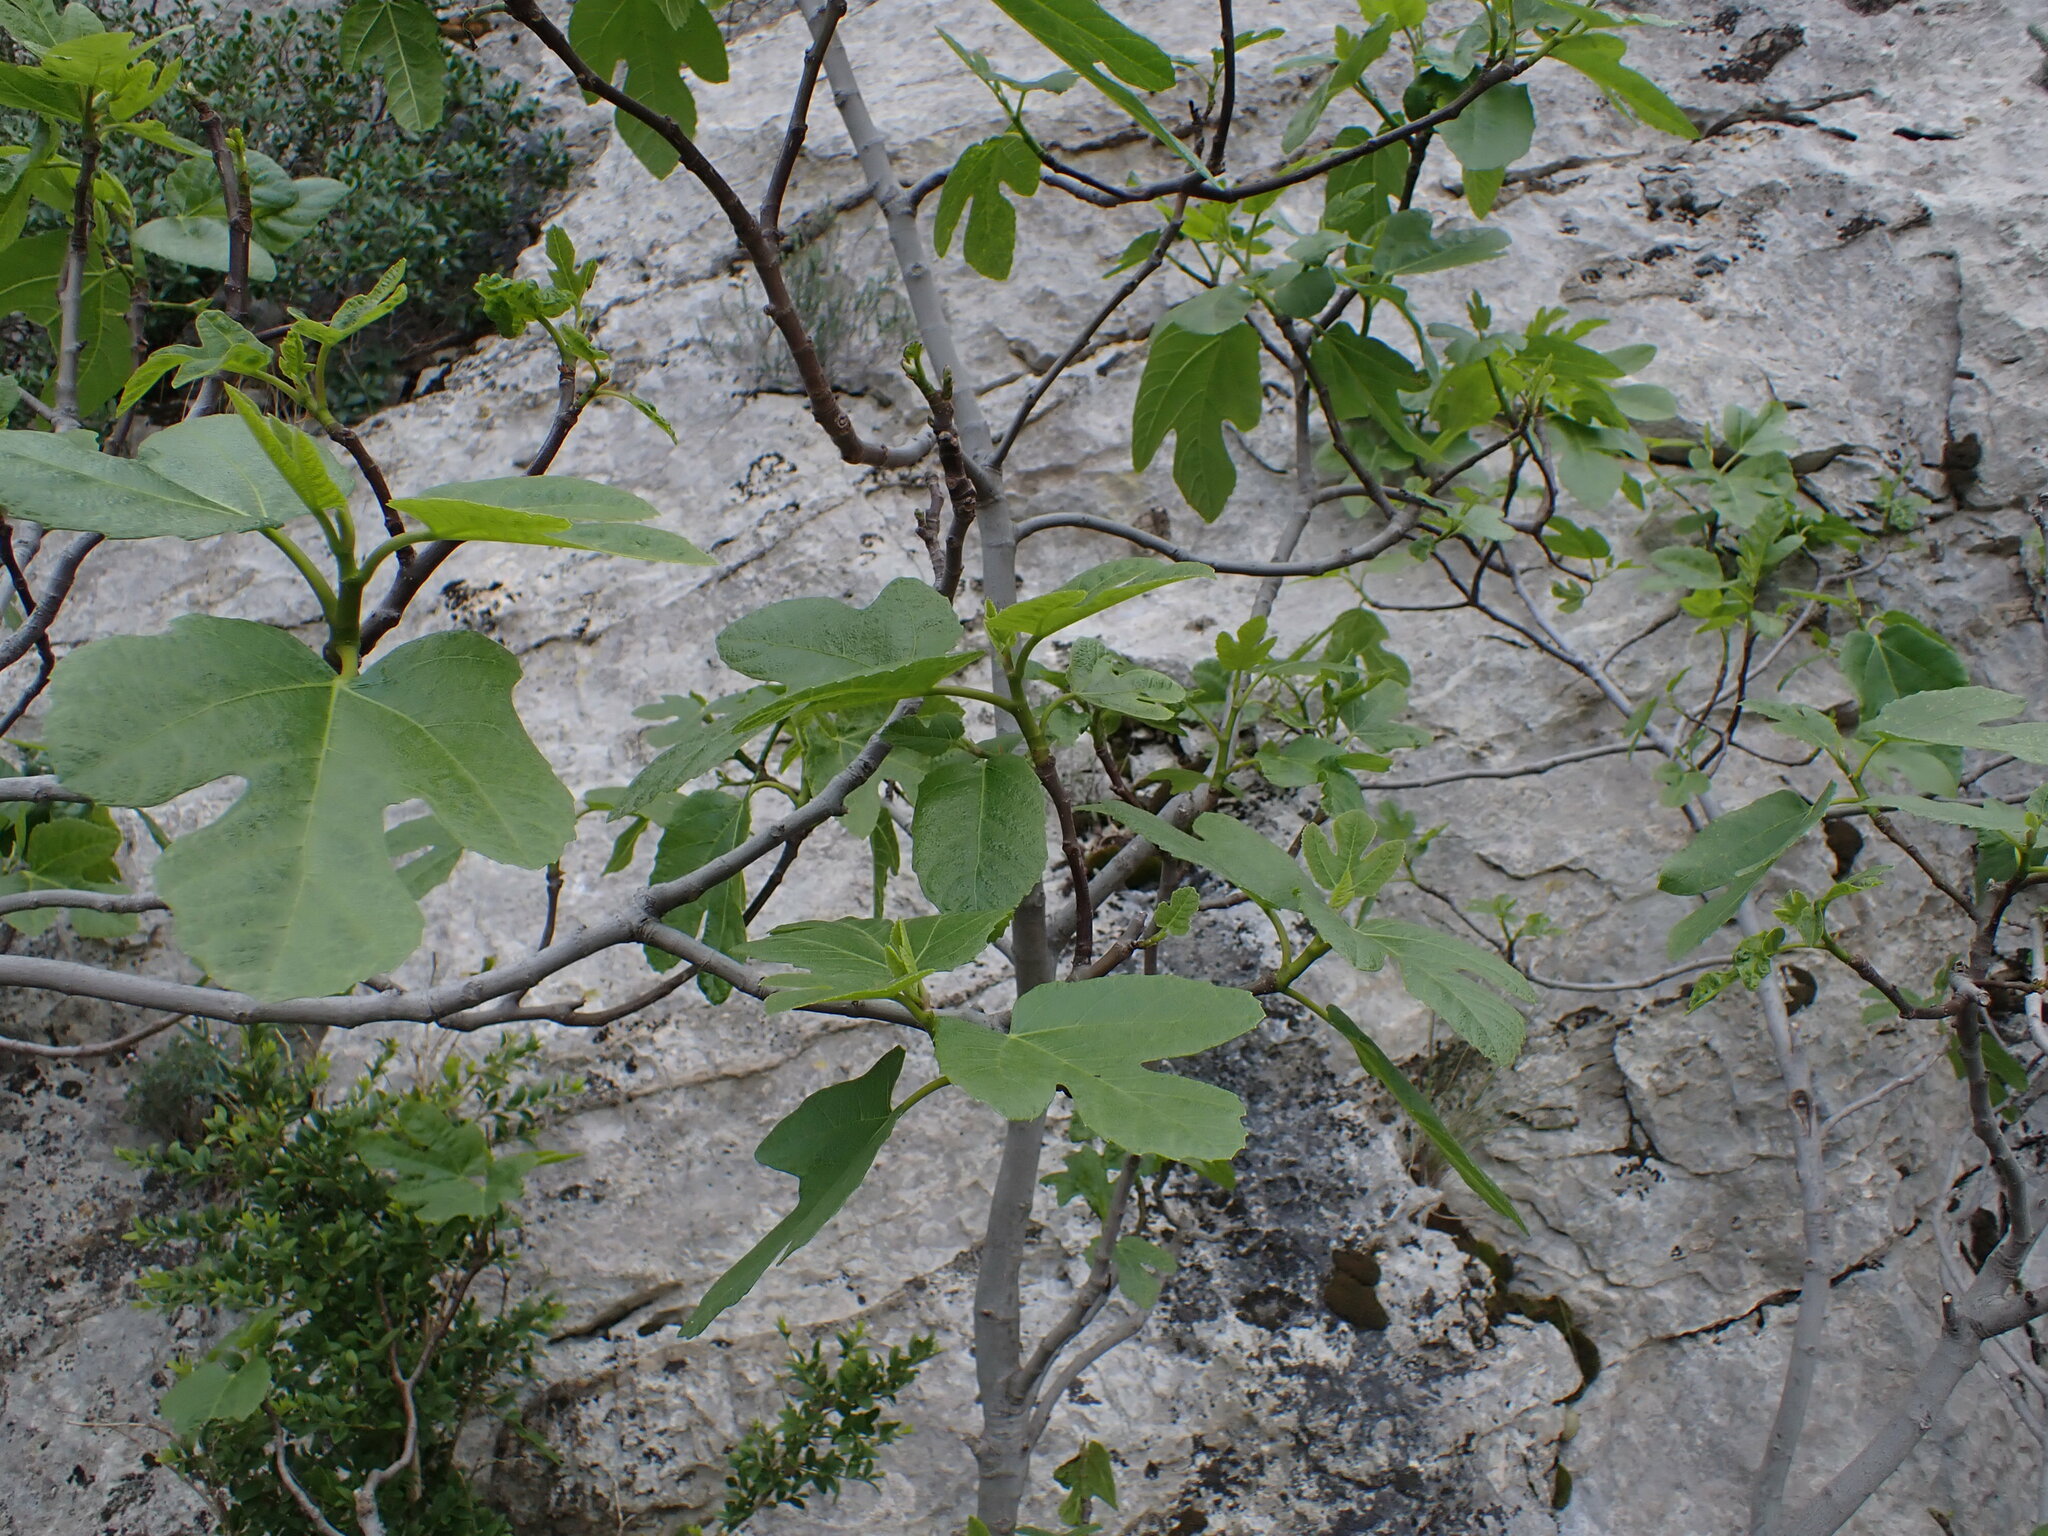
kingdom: Plantae
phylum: Tracheophyta
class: Magnoliopsida
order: Rosales
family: Moraceae
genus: Ficus
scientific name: Ficus carica
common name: Fig
